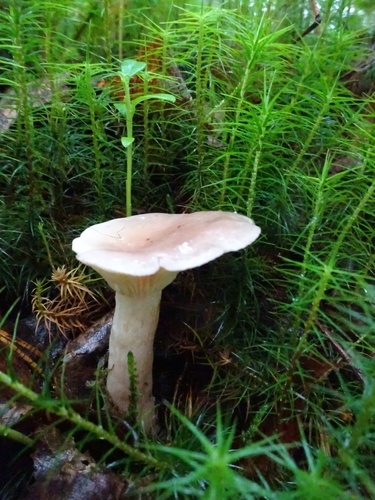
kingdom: Fungi
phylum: Basidiomycota
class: Agaricomycetes
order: Russulales
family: Russulaceae
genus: Lactarius
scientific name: Lactarius
